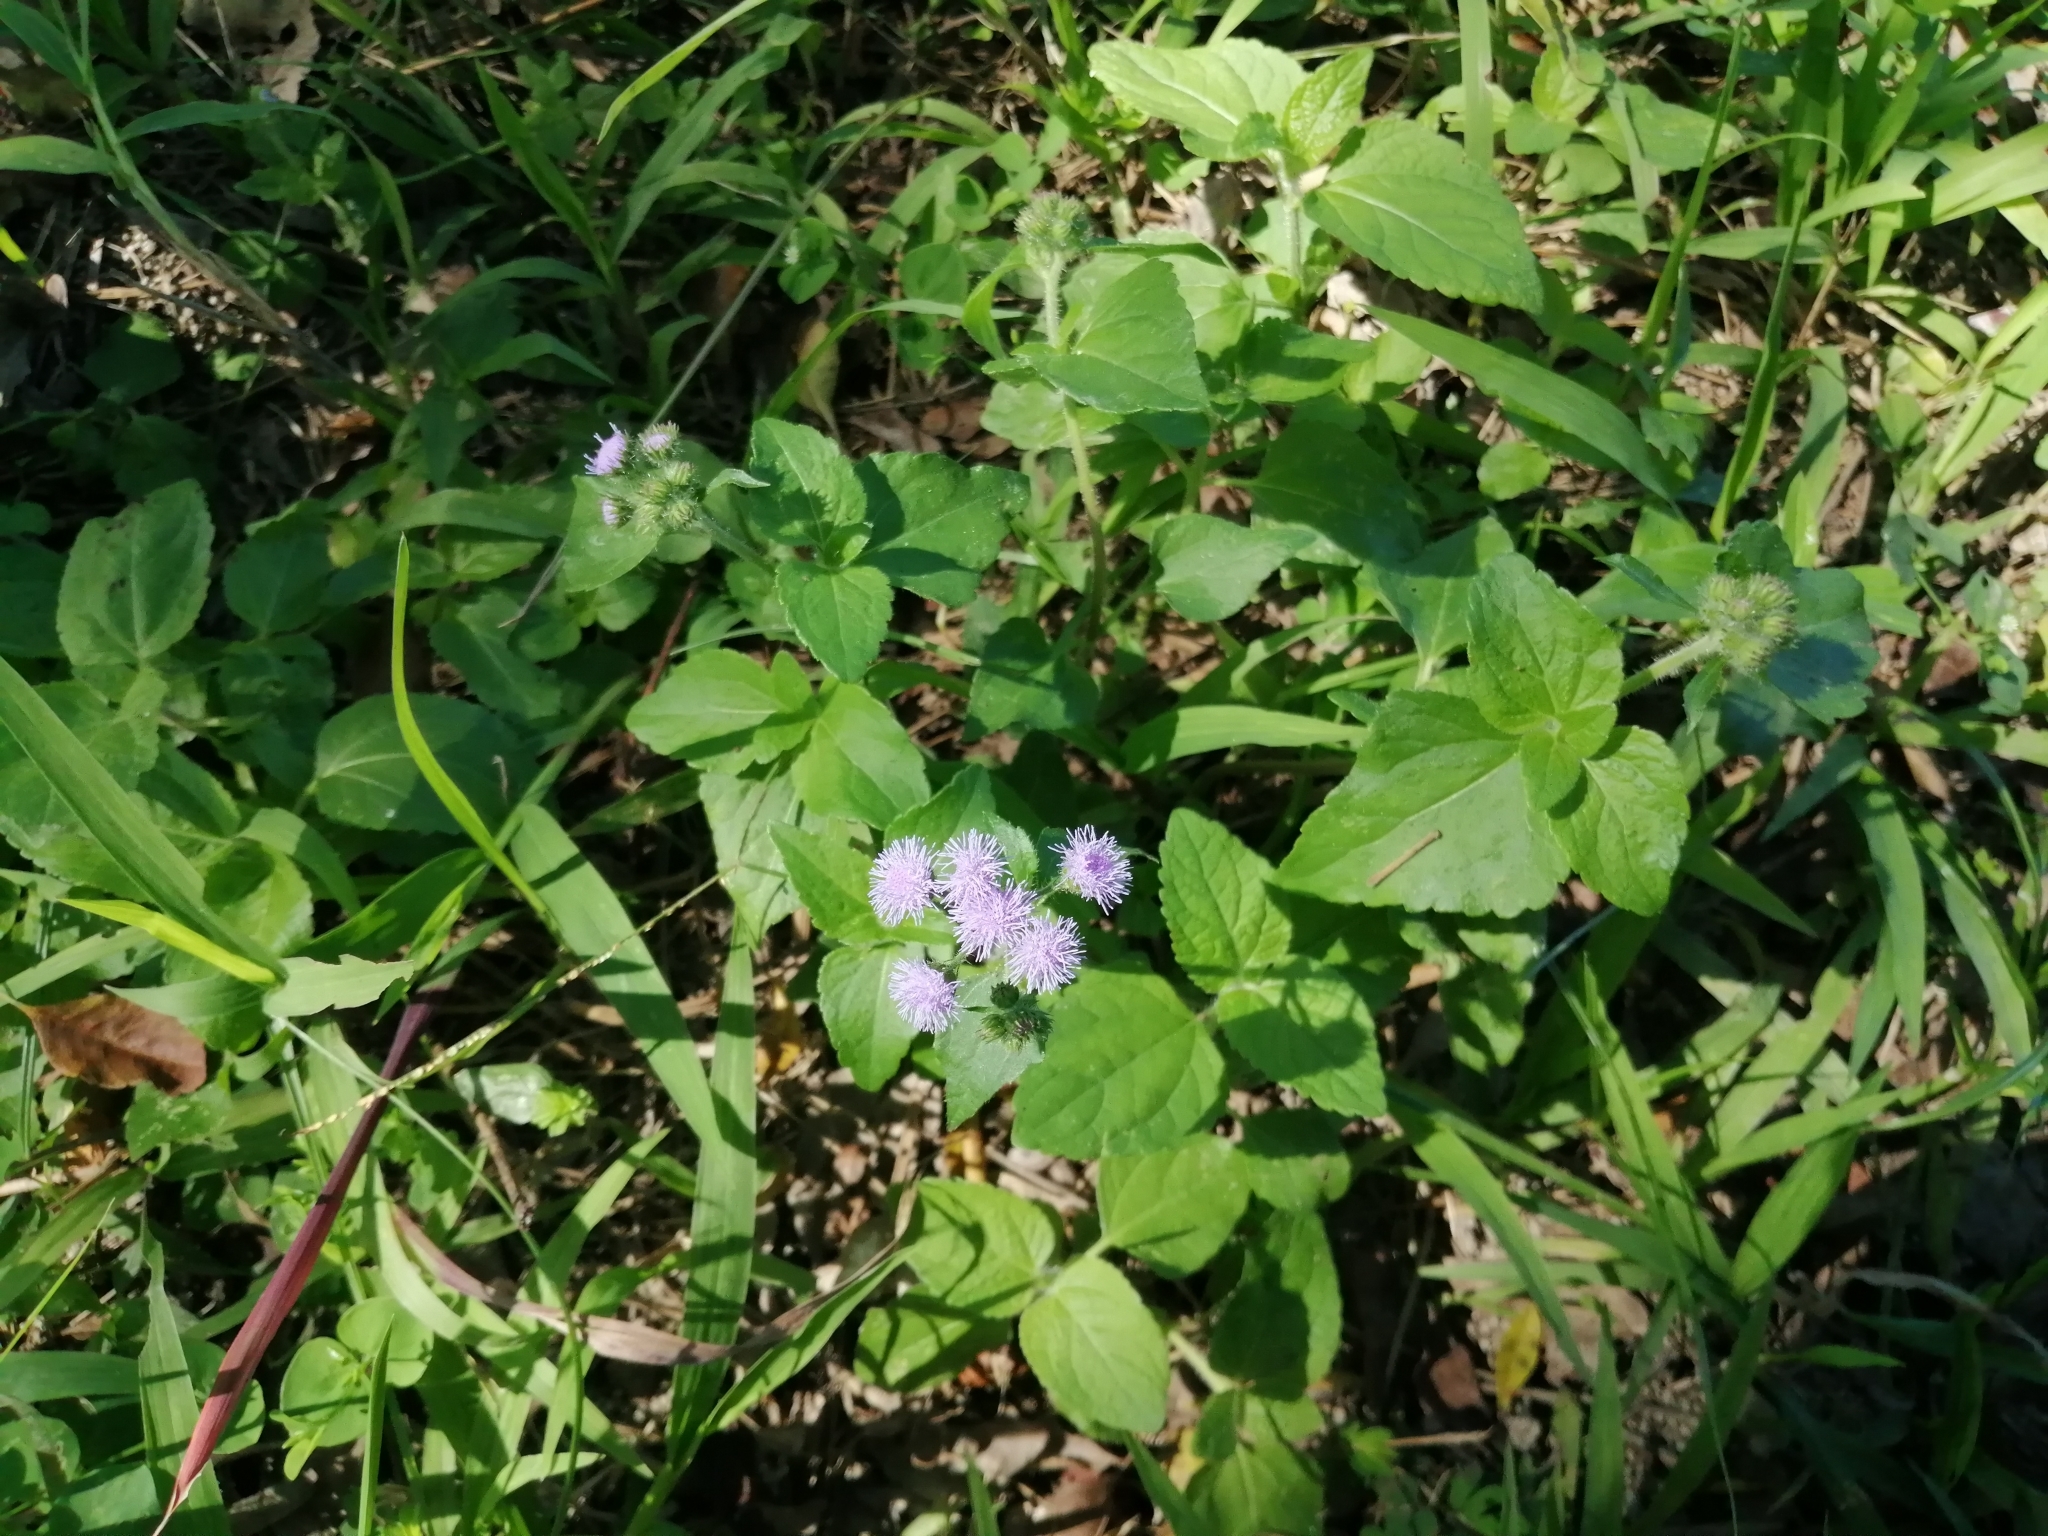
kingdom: Plantae
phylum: Tracheophyta
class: Magnoliopsida
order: Asterales
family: Asteraceae
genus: Ageratum
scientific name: Ageratum houstonianum
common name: Bluemink
